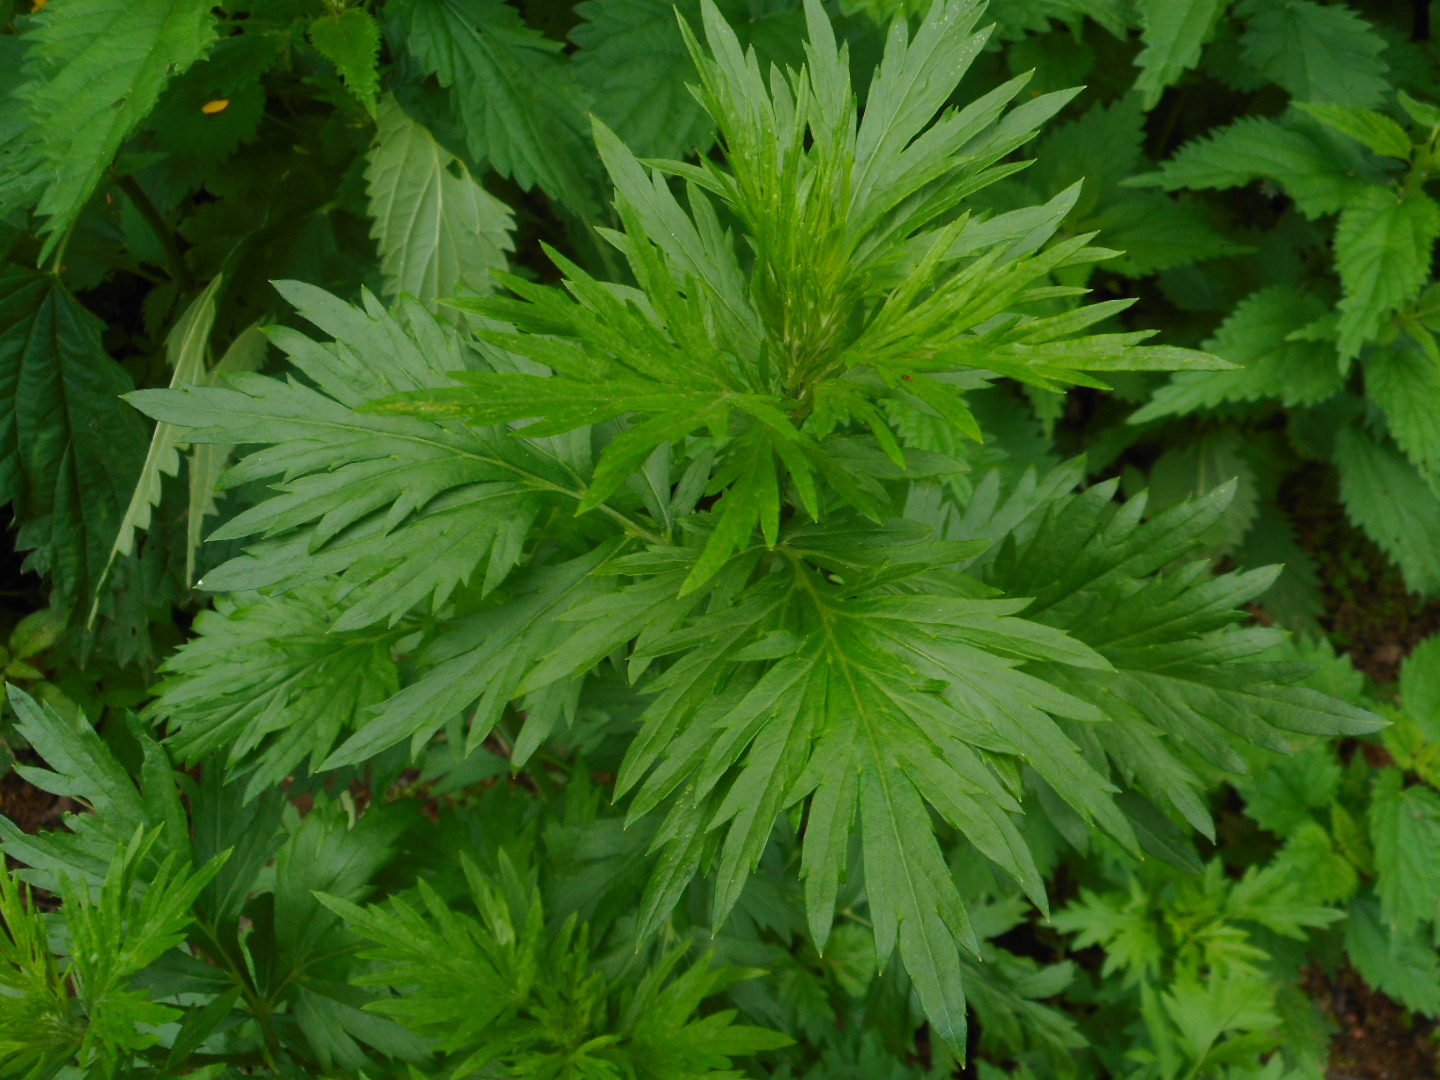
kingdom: Plantae
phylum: Tracheophyta
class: Magnoliopsida
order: Asterales
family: Asteraceae
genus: Artemisia
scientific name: Artemisia vulgaris
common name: Mugwort
